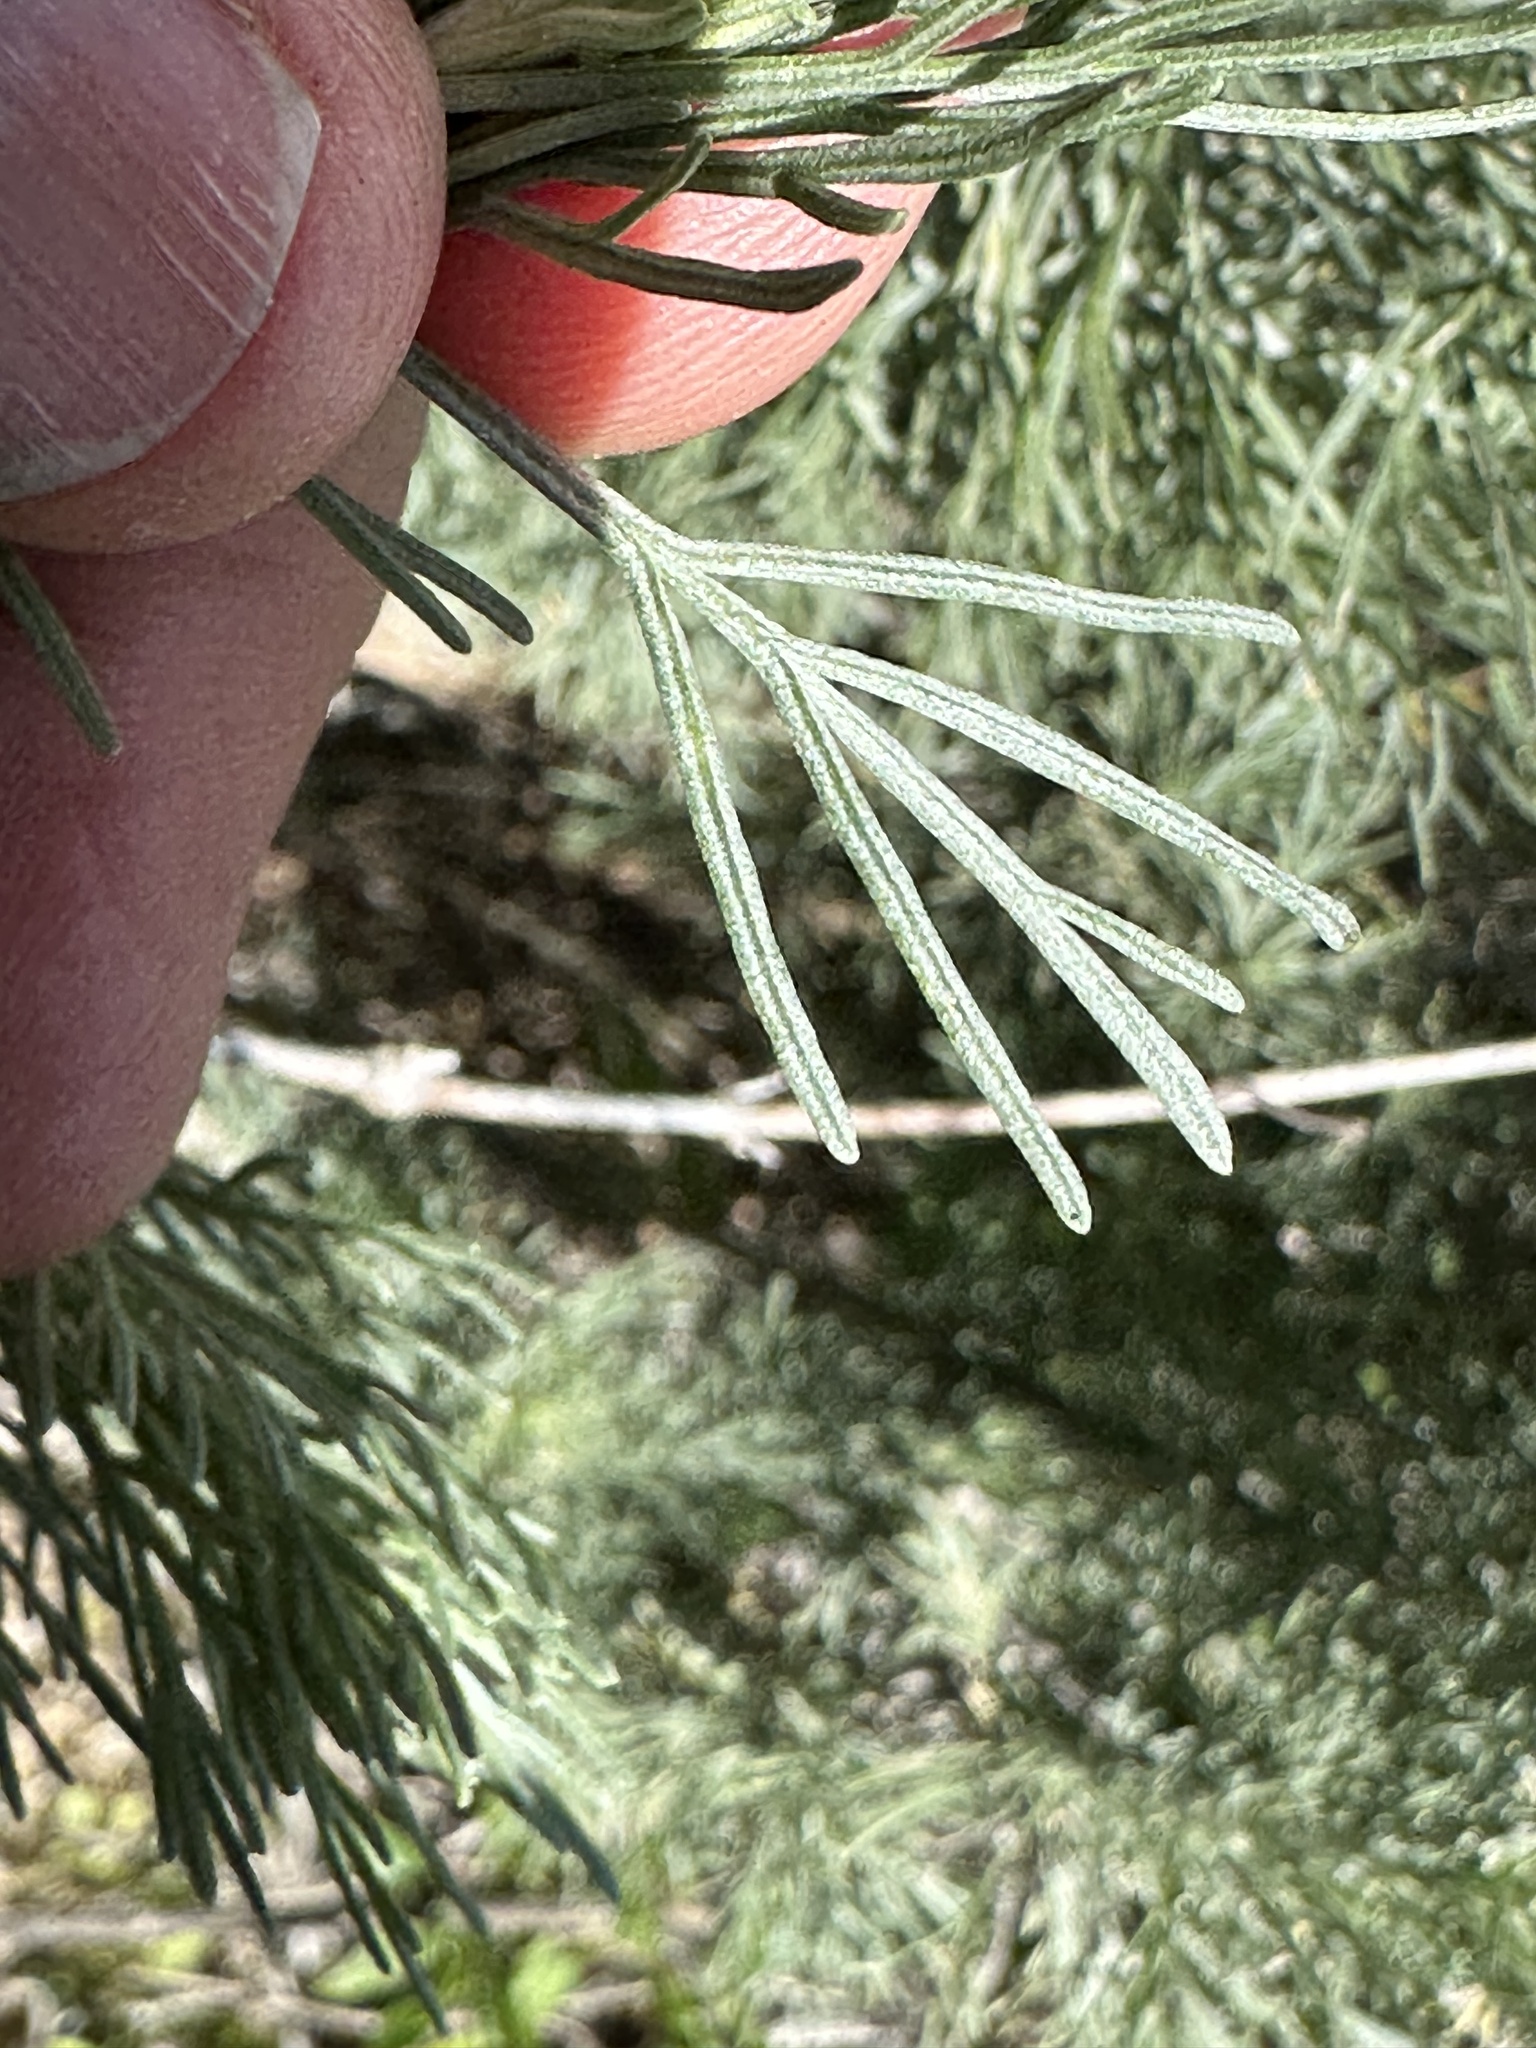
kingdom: Plantae
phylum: Tracheophyta
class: Magnoliopsida
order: Asterales
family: Asteraceae
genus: Artemisia
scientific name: Artemisia californica
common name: California sagebrush
